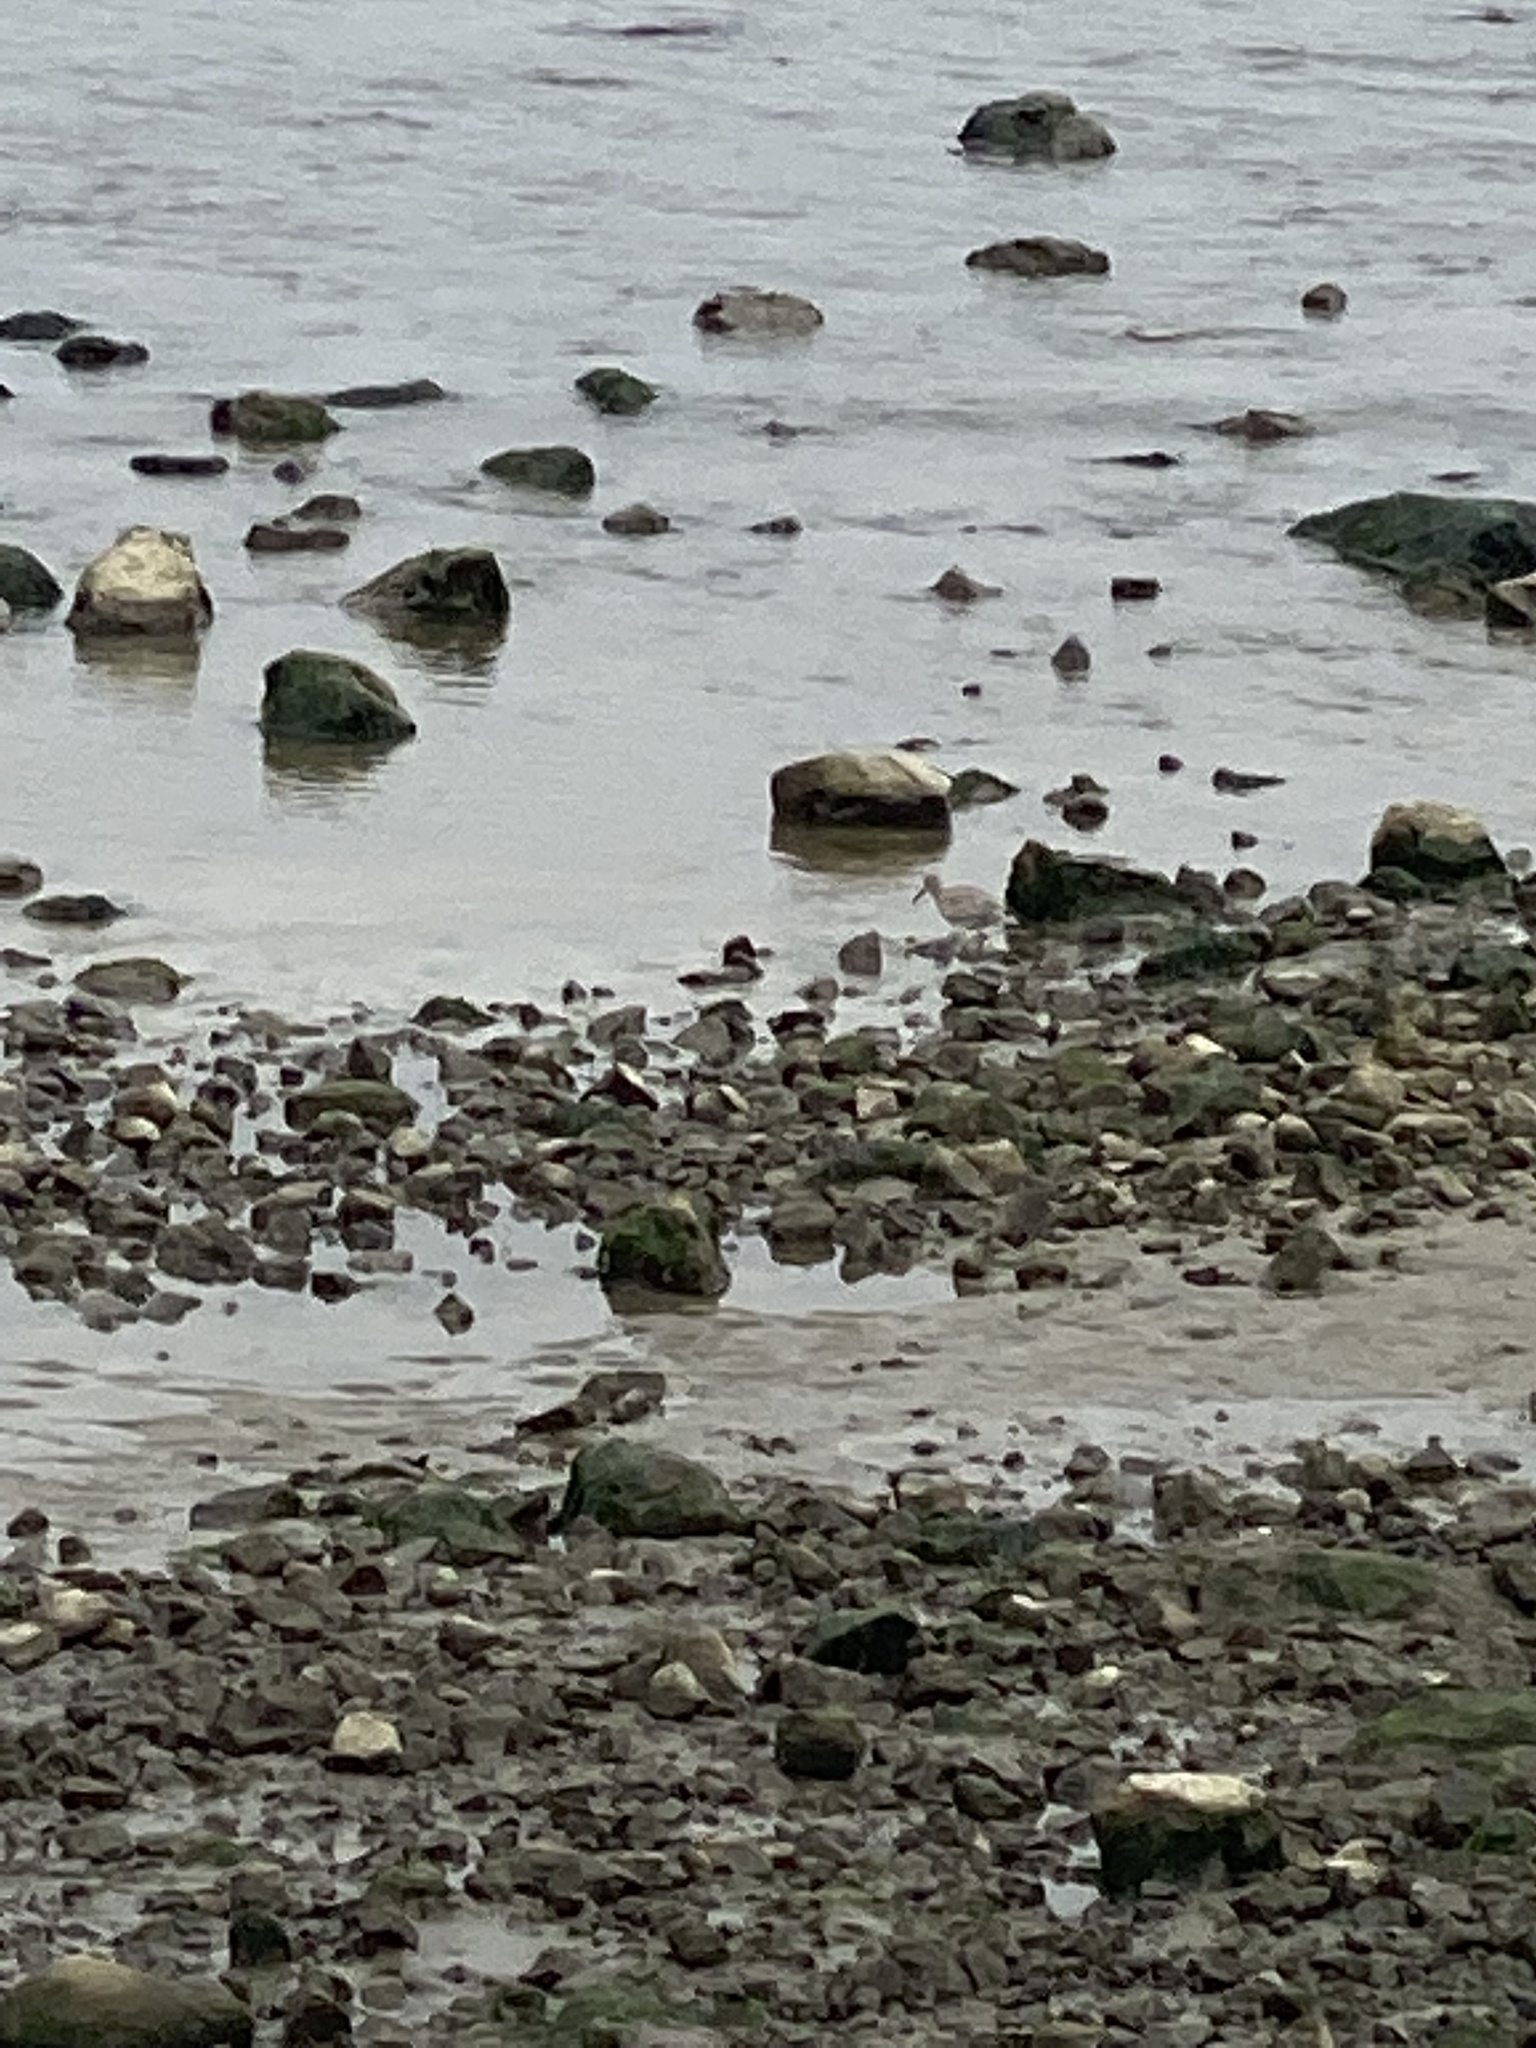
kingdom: Animalia
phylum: Chordata
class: Aves
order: Charadriiformes
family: Scolopacidae
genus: Tringa
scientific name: Tringa semipalmata
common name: Willet
